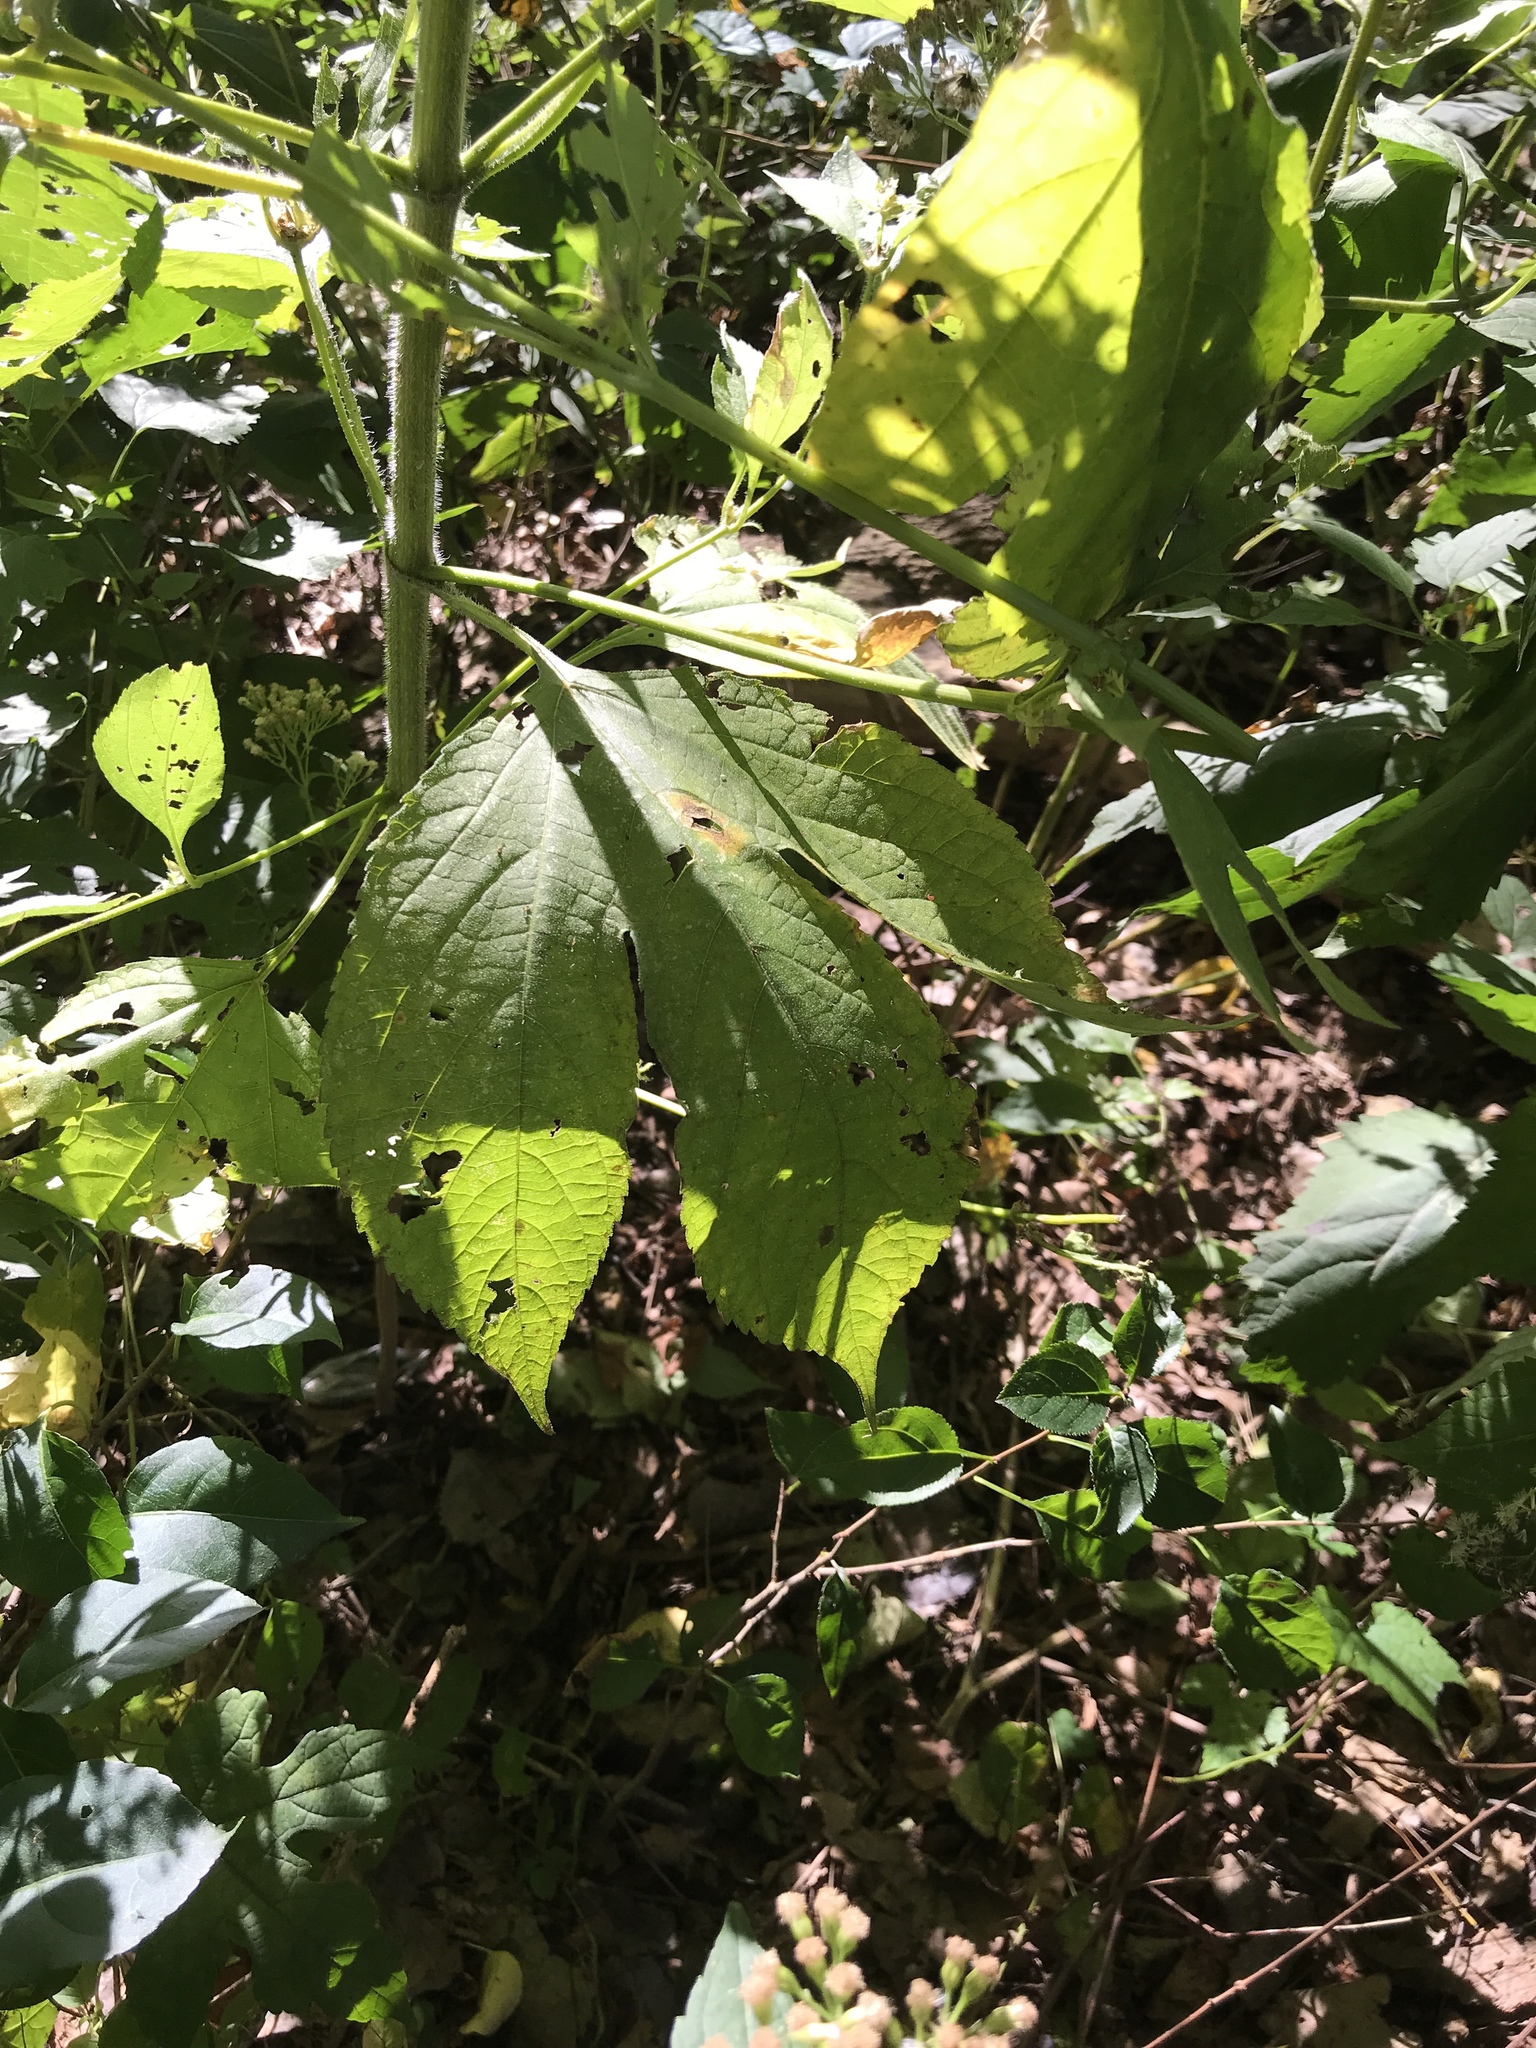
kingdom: Plantae
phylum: Tracheophyta
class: Magnoliopsida
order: Asterales
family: Asteraceae
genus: Ambrosia
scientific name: Ambrosia trifida
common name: Giant ragweed
